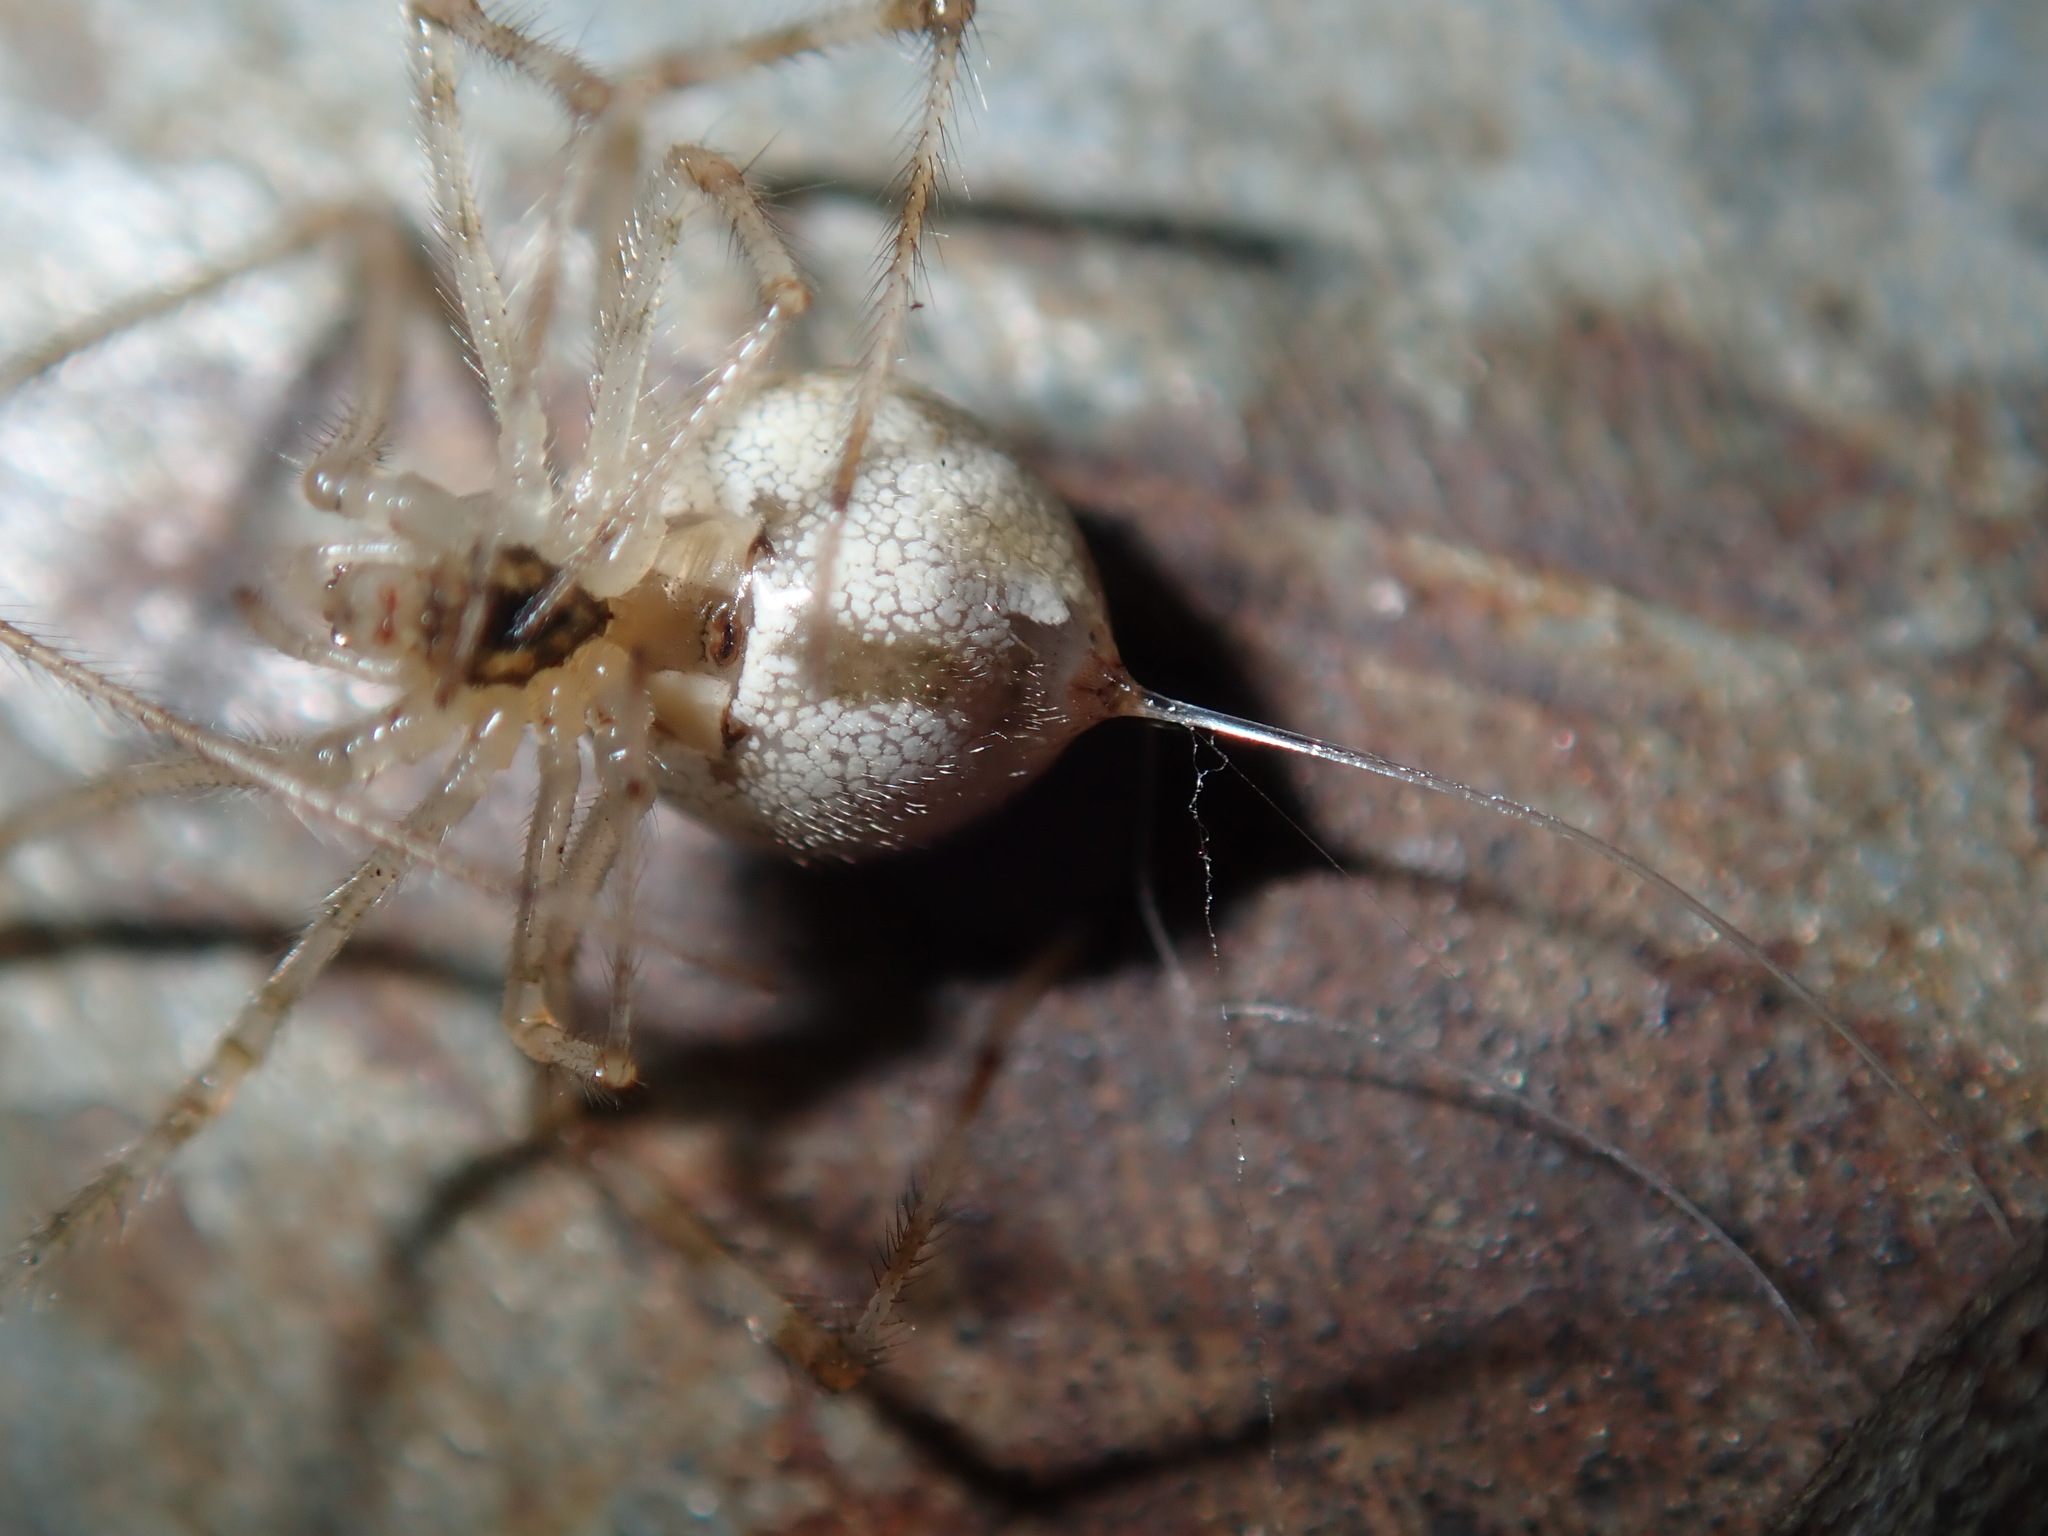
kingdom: Animalia
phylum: Arthropoda
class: Arachnida
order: Araneae
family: Theridiidae
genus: Cryptachaea
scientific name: Cryptachaea gigantipes
